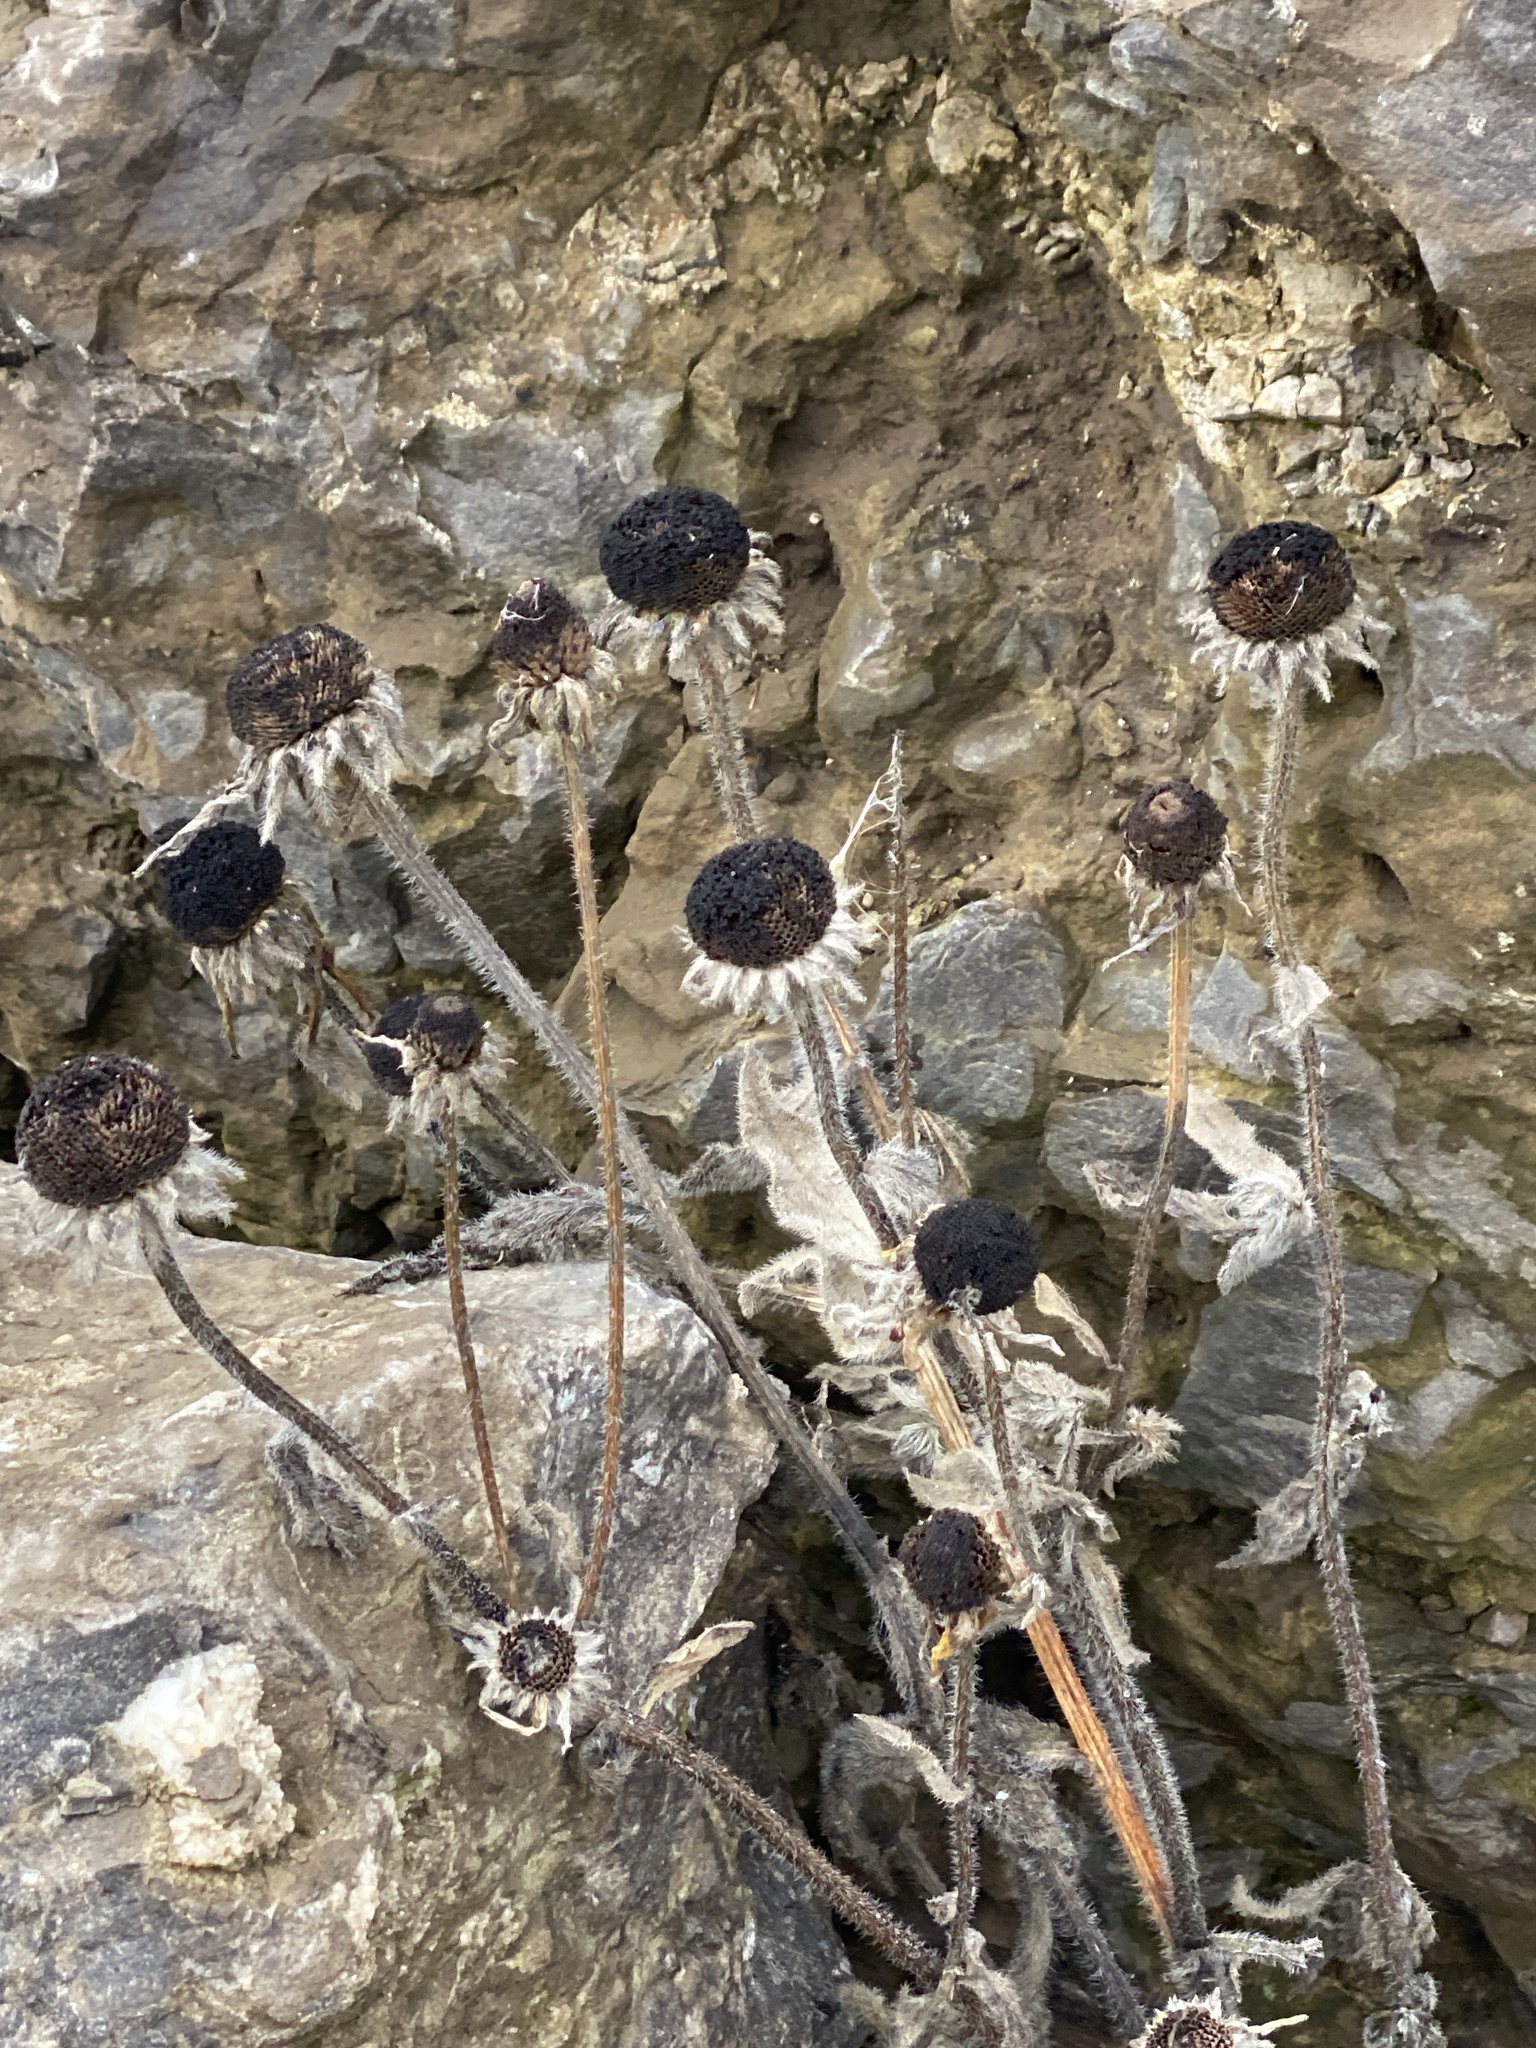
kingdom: Plantae
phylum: Tracheophyta
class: Magnoliopsida
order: Asterales
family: Asteraceae
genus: Rudbeckia
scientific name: Rudbeckia hirta
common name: Black-eyed-susan
